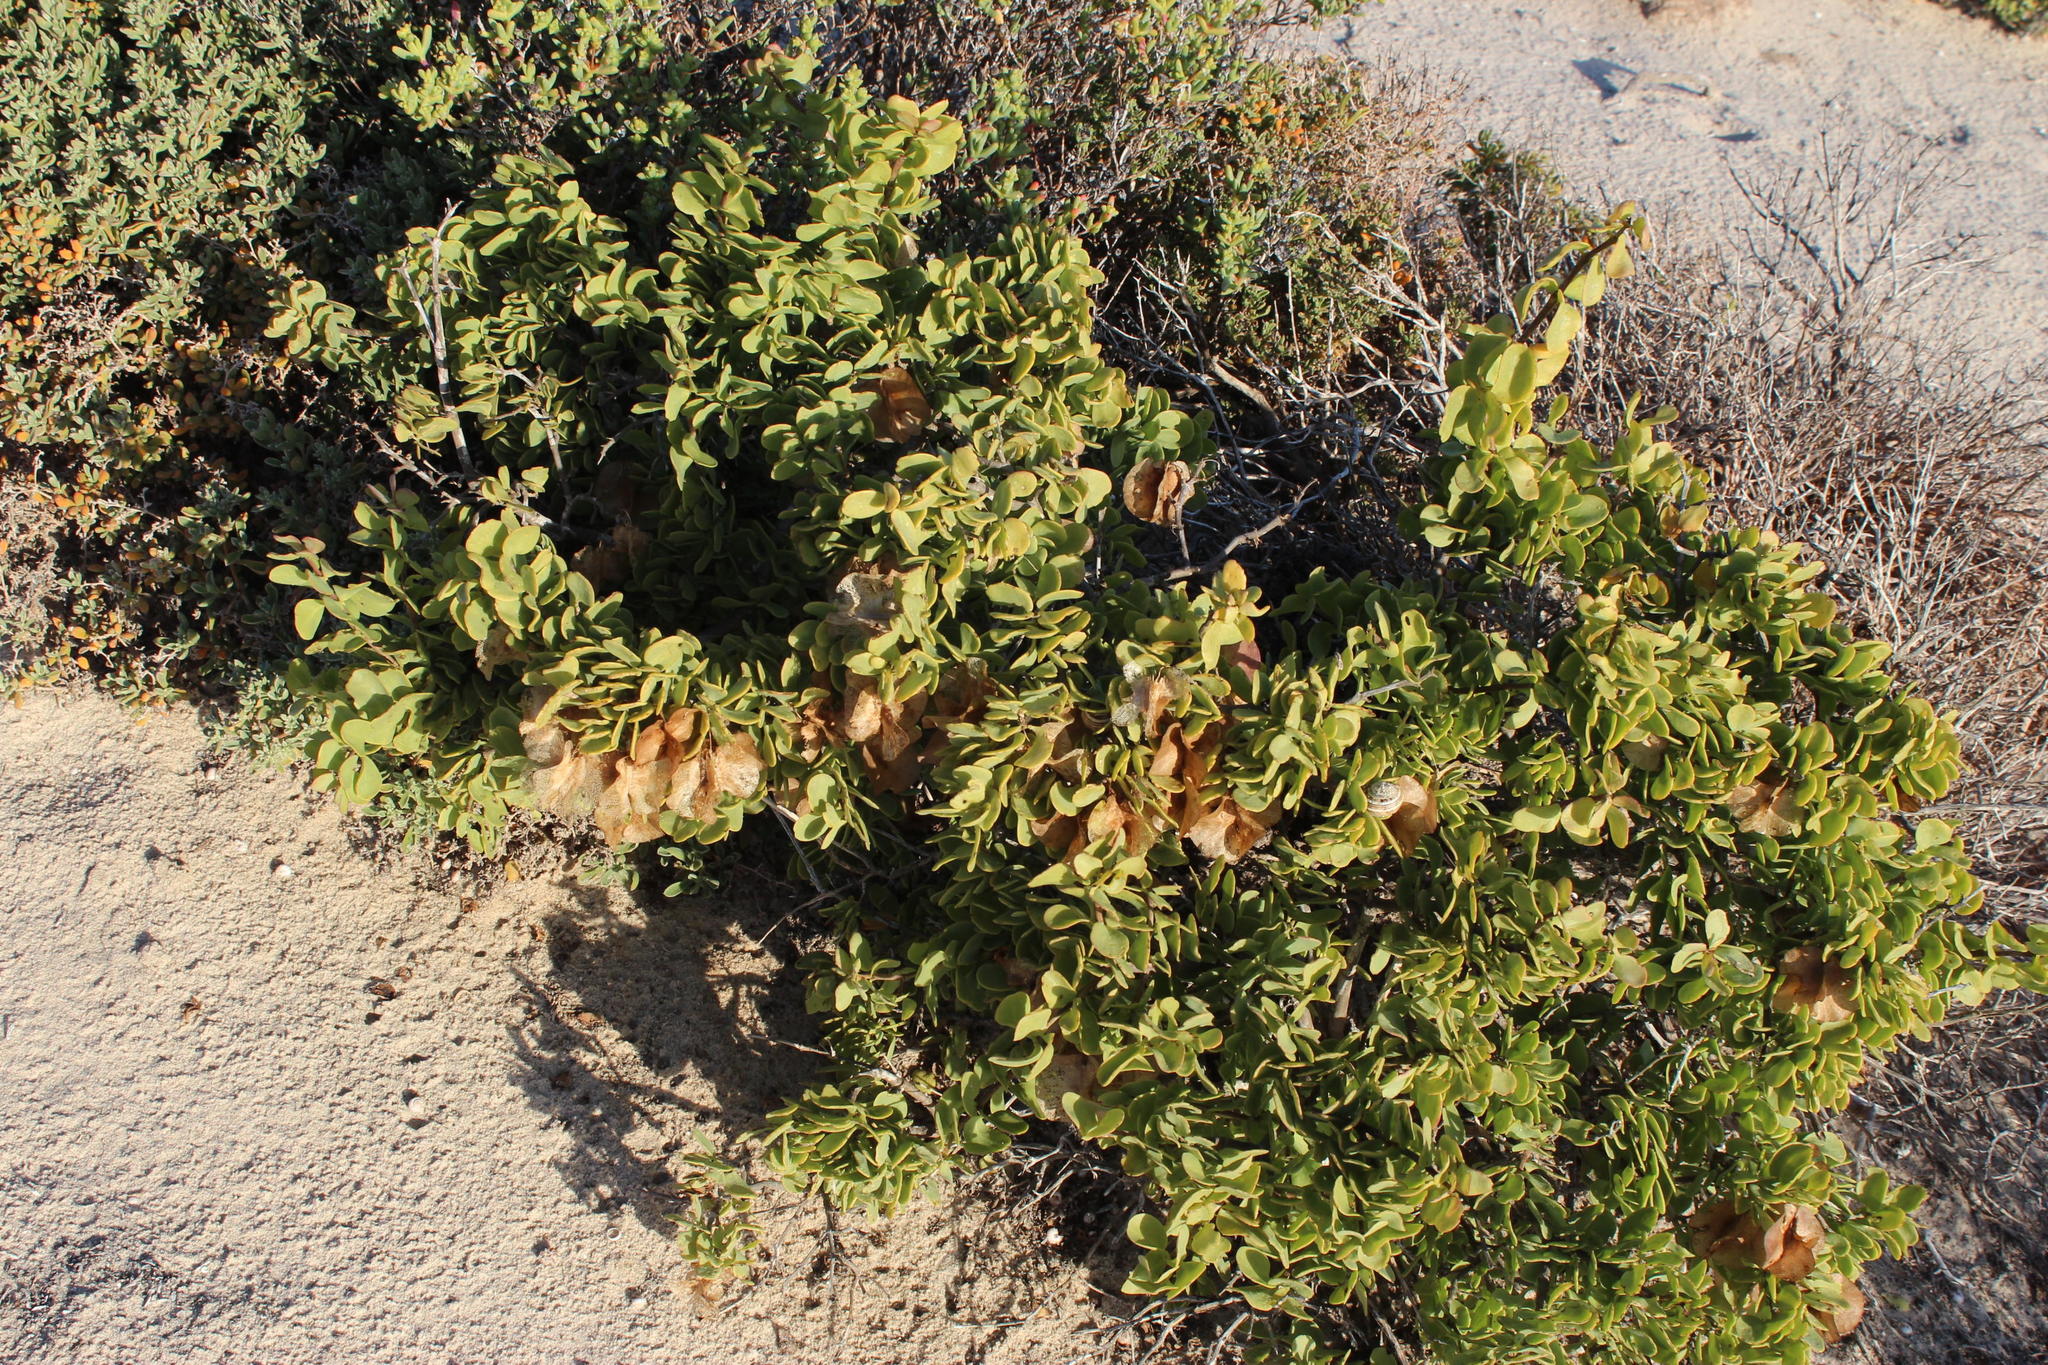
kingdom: Plantae
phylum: Tracheophyta
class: Magnoliopsida
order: Zygophyllales
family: Zygophyllaceae
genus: Roepera
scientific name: Roepera morgsana
